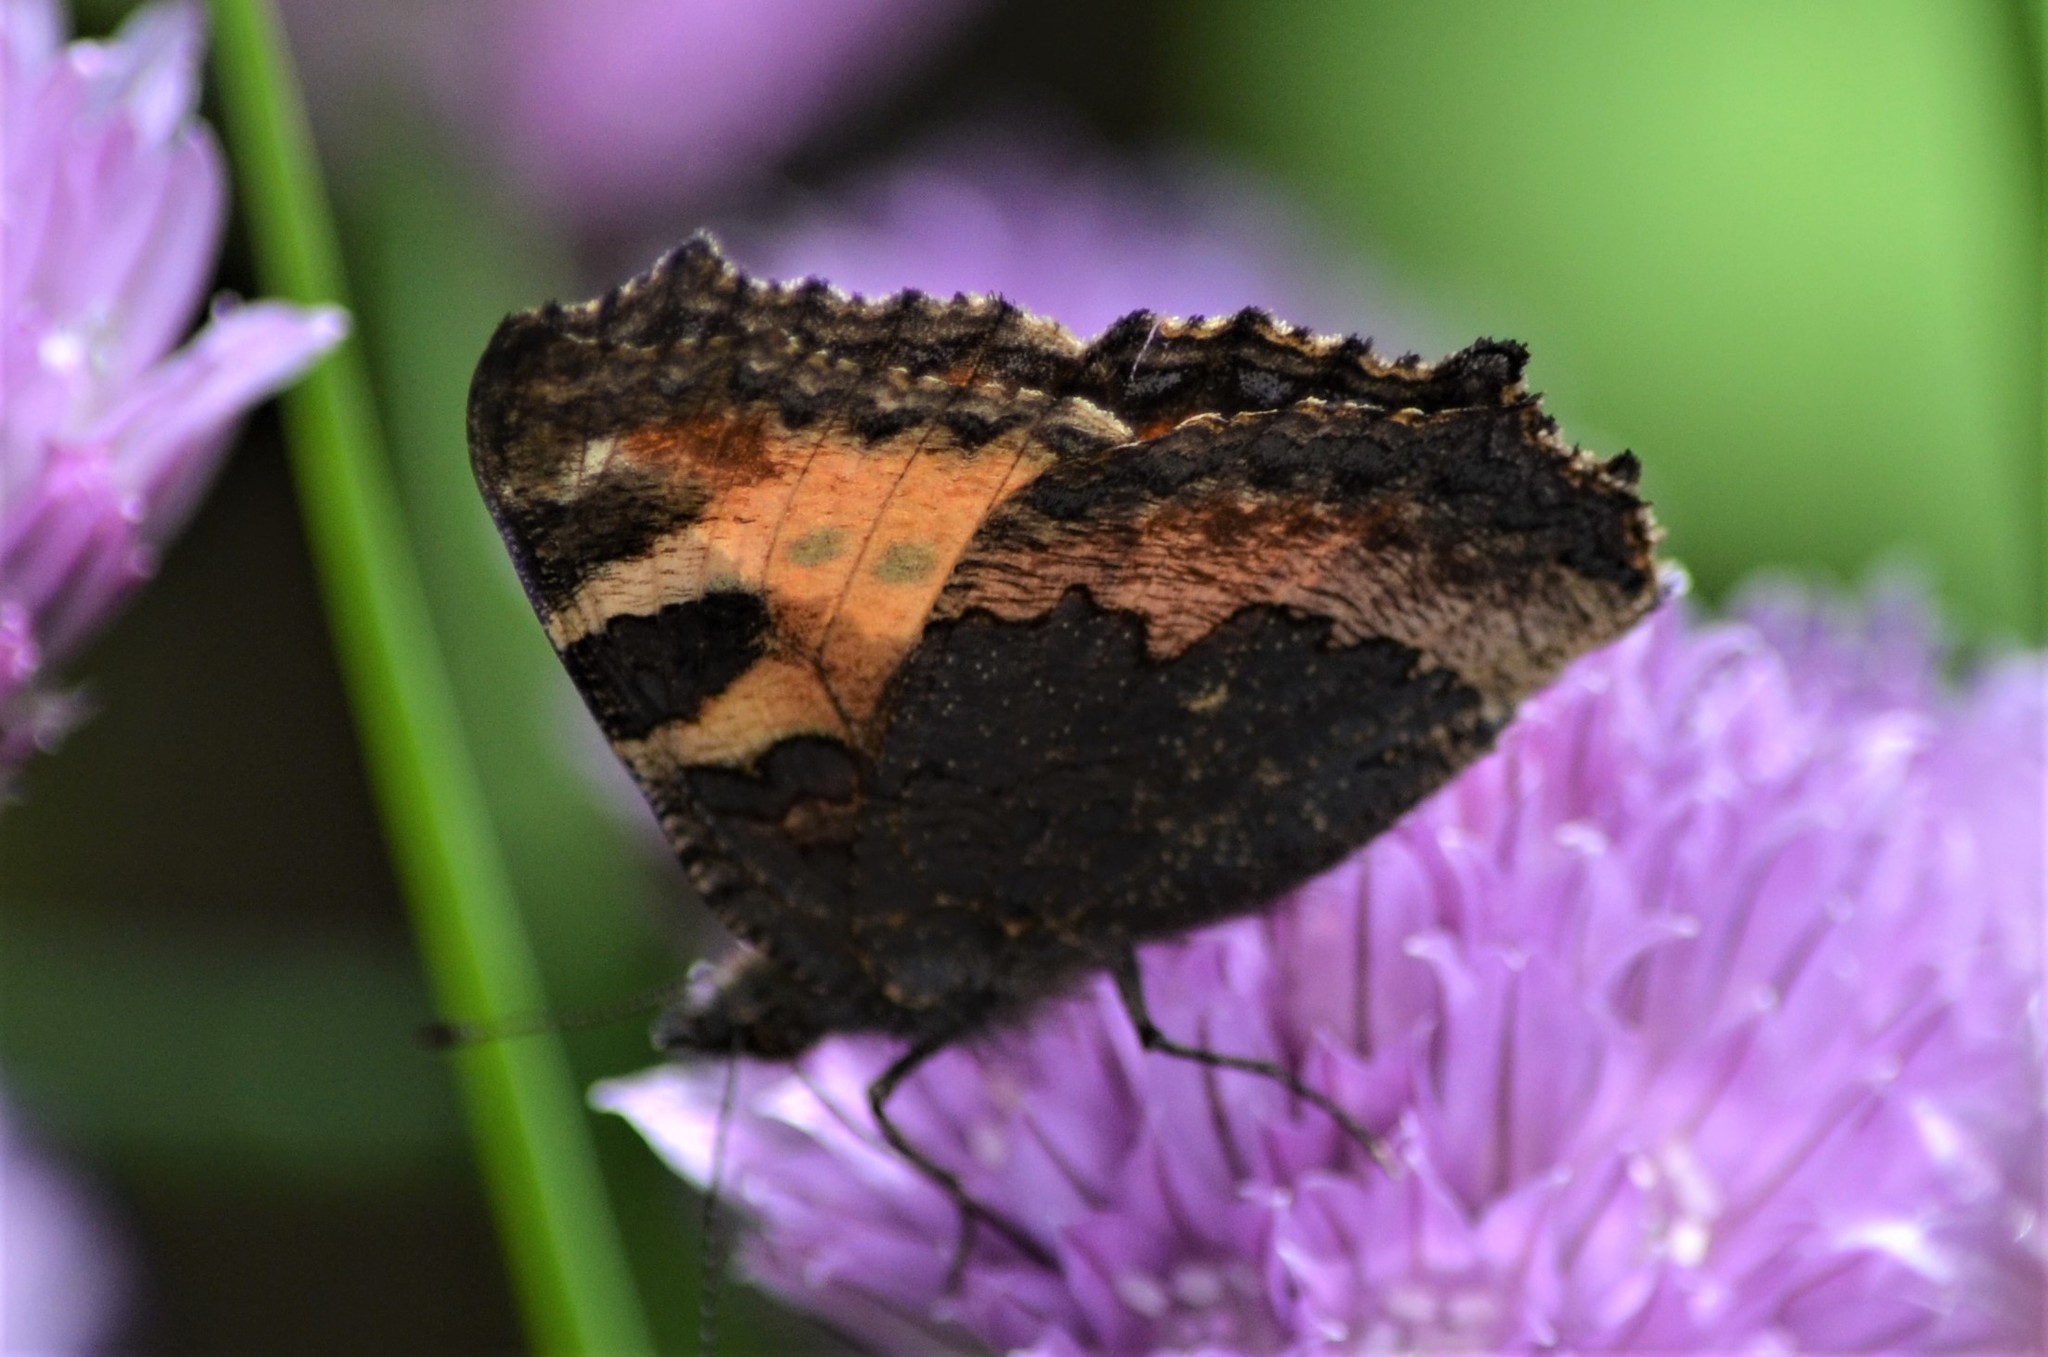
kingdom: Animalia
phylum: Arthropoda
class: Insecta
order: Lepidoptera
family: Nymphalidae
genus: Aglais
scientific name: Aglais urticae
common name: Small tortoiseshell
